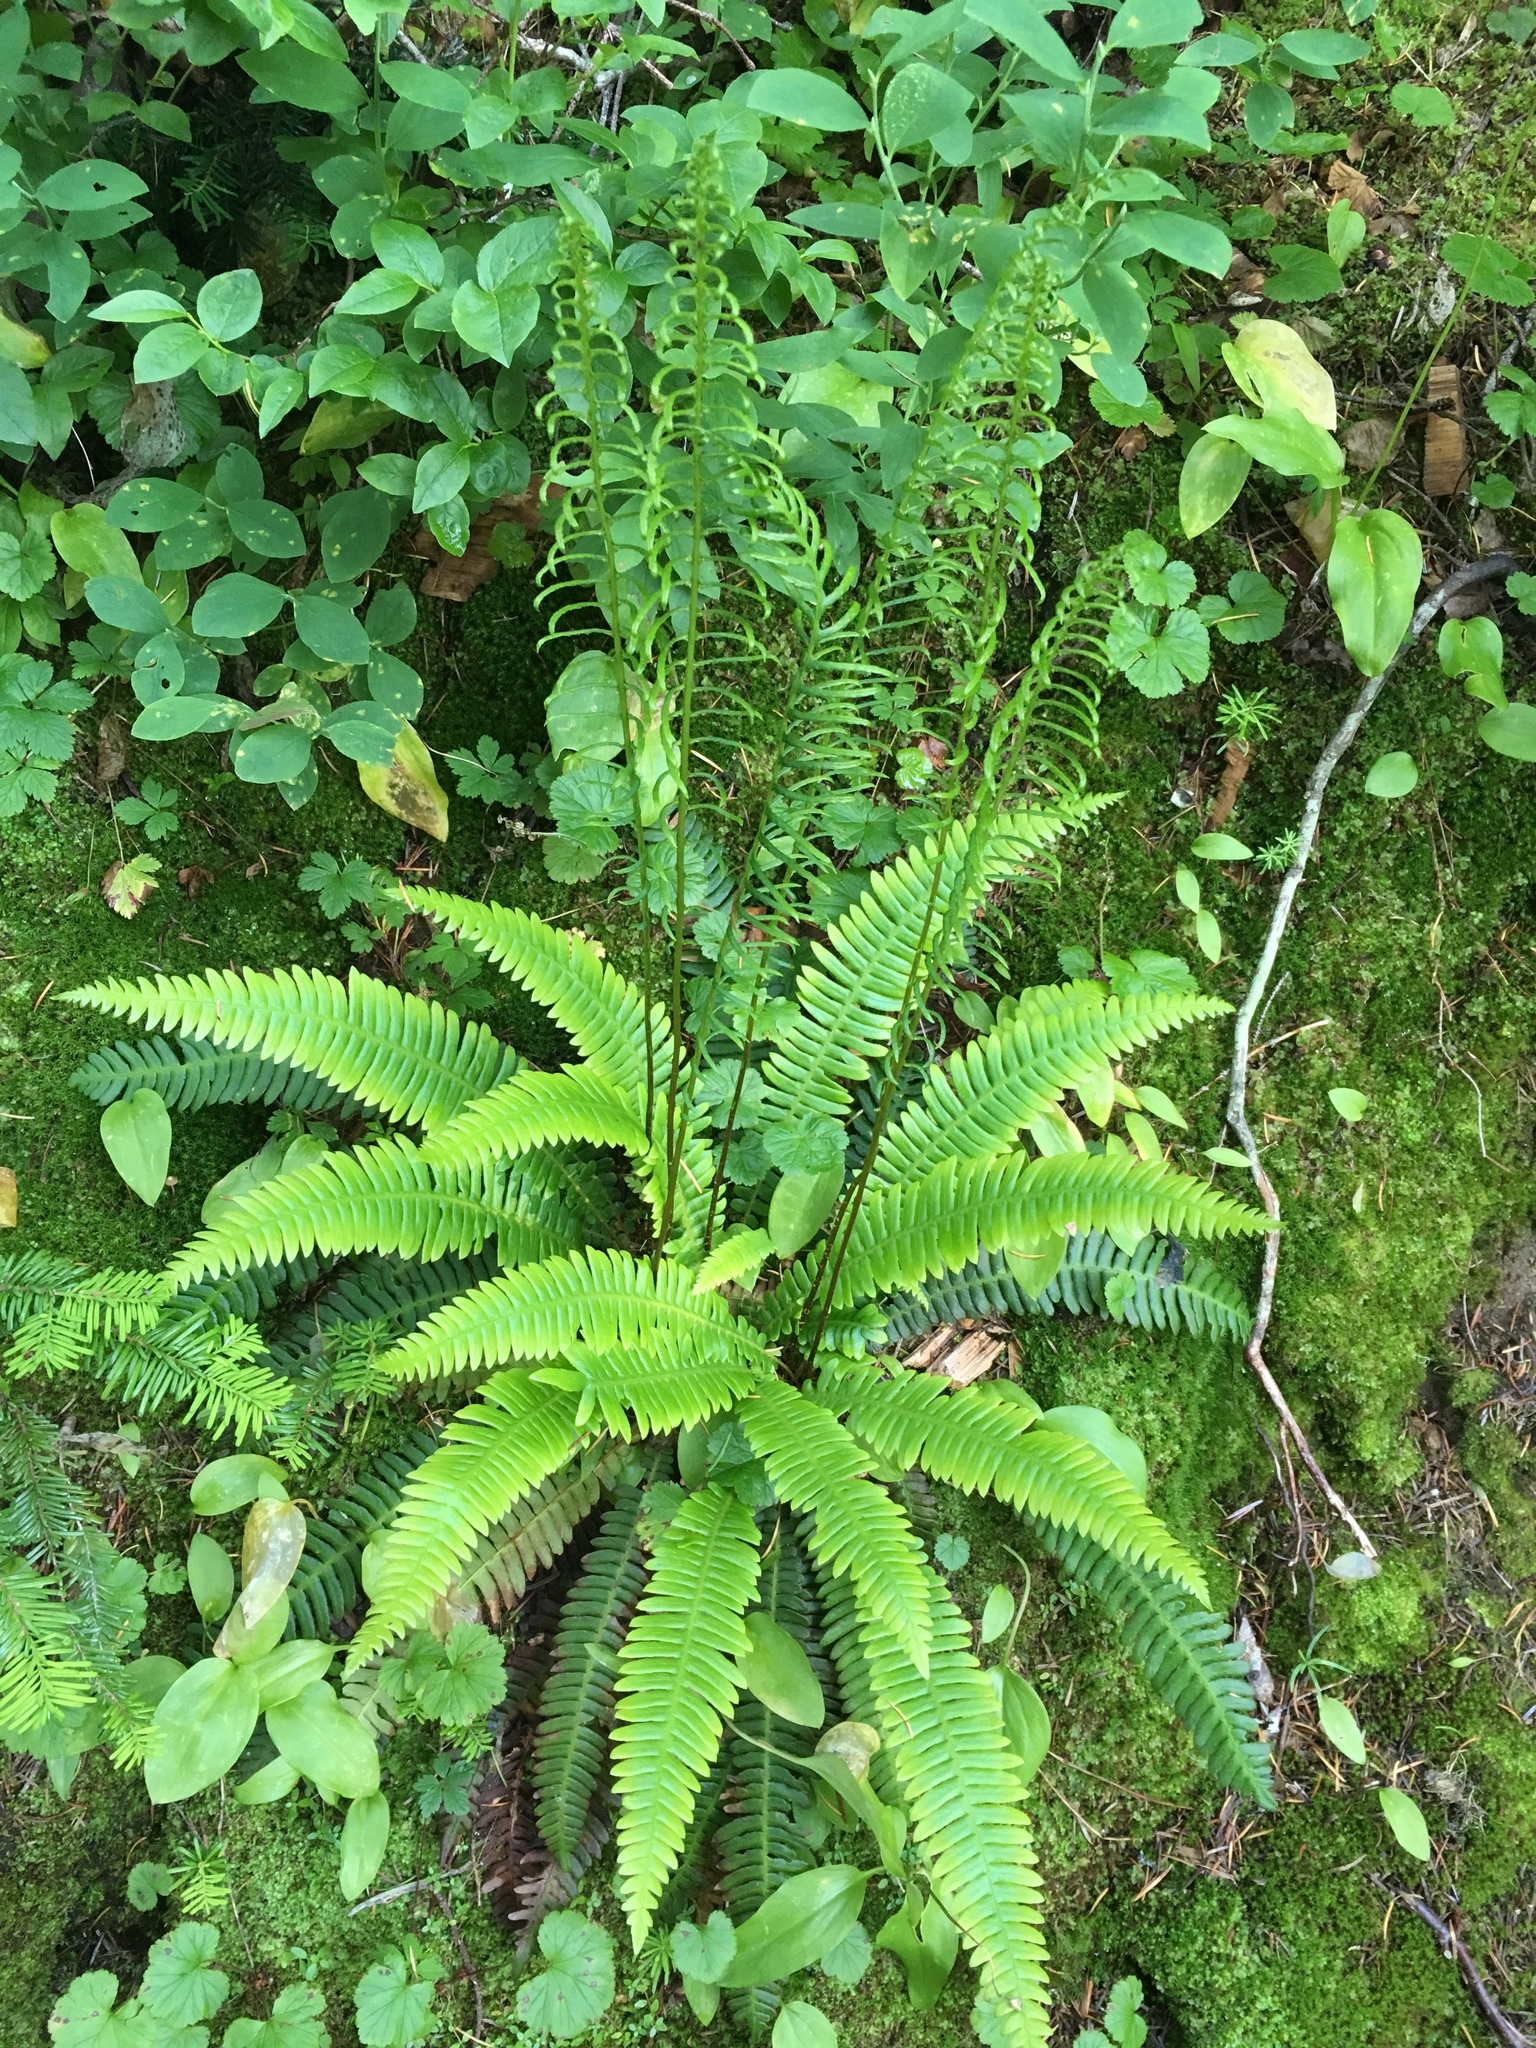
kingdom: Plantae
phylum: Tracheophyta
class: Polypodiopsida
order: Polypodiales
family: Blechnaceae
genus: Struthiopteris
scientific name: Struthiopteris spicant
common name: Deer fern
